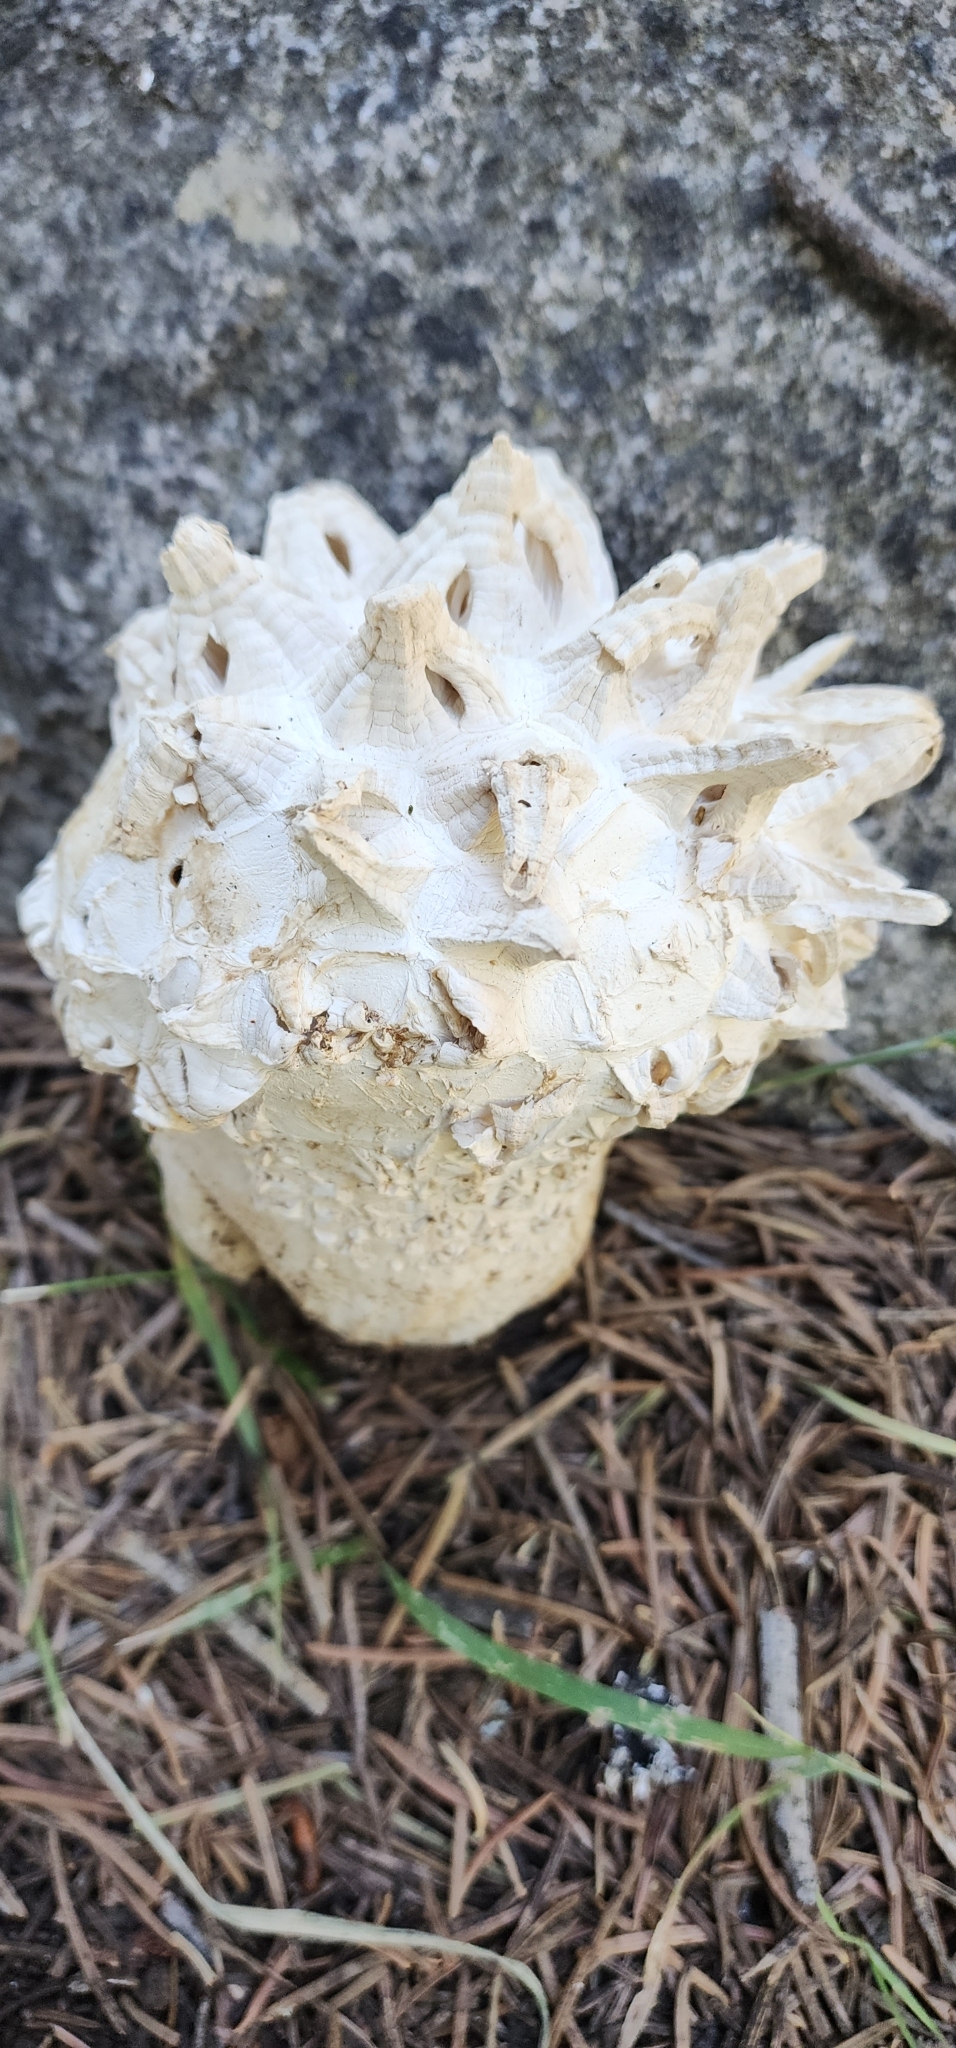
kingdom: Fungi
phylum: Basidiomycota
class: Agaricomycetes
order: Agaricales
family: Lycoperdaceae
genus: Calvatia
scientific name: Calvatia sculpta
